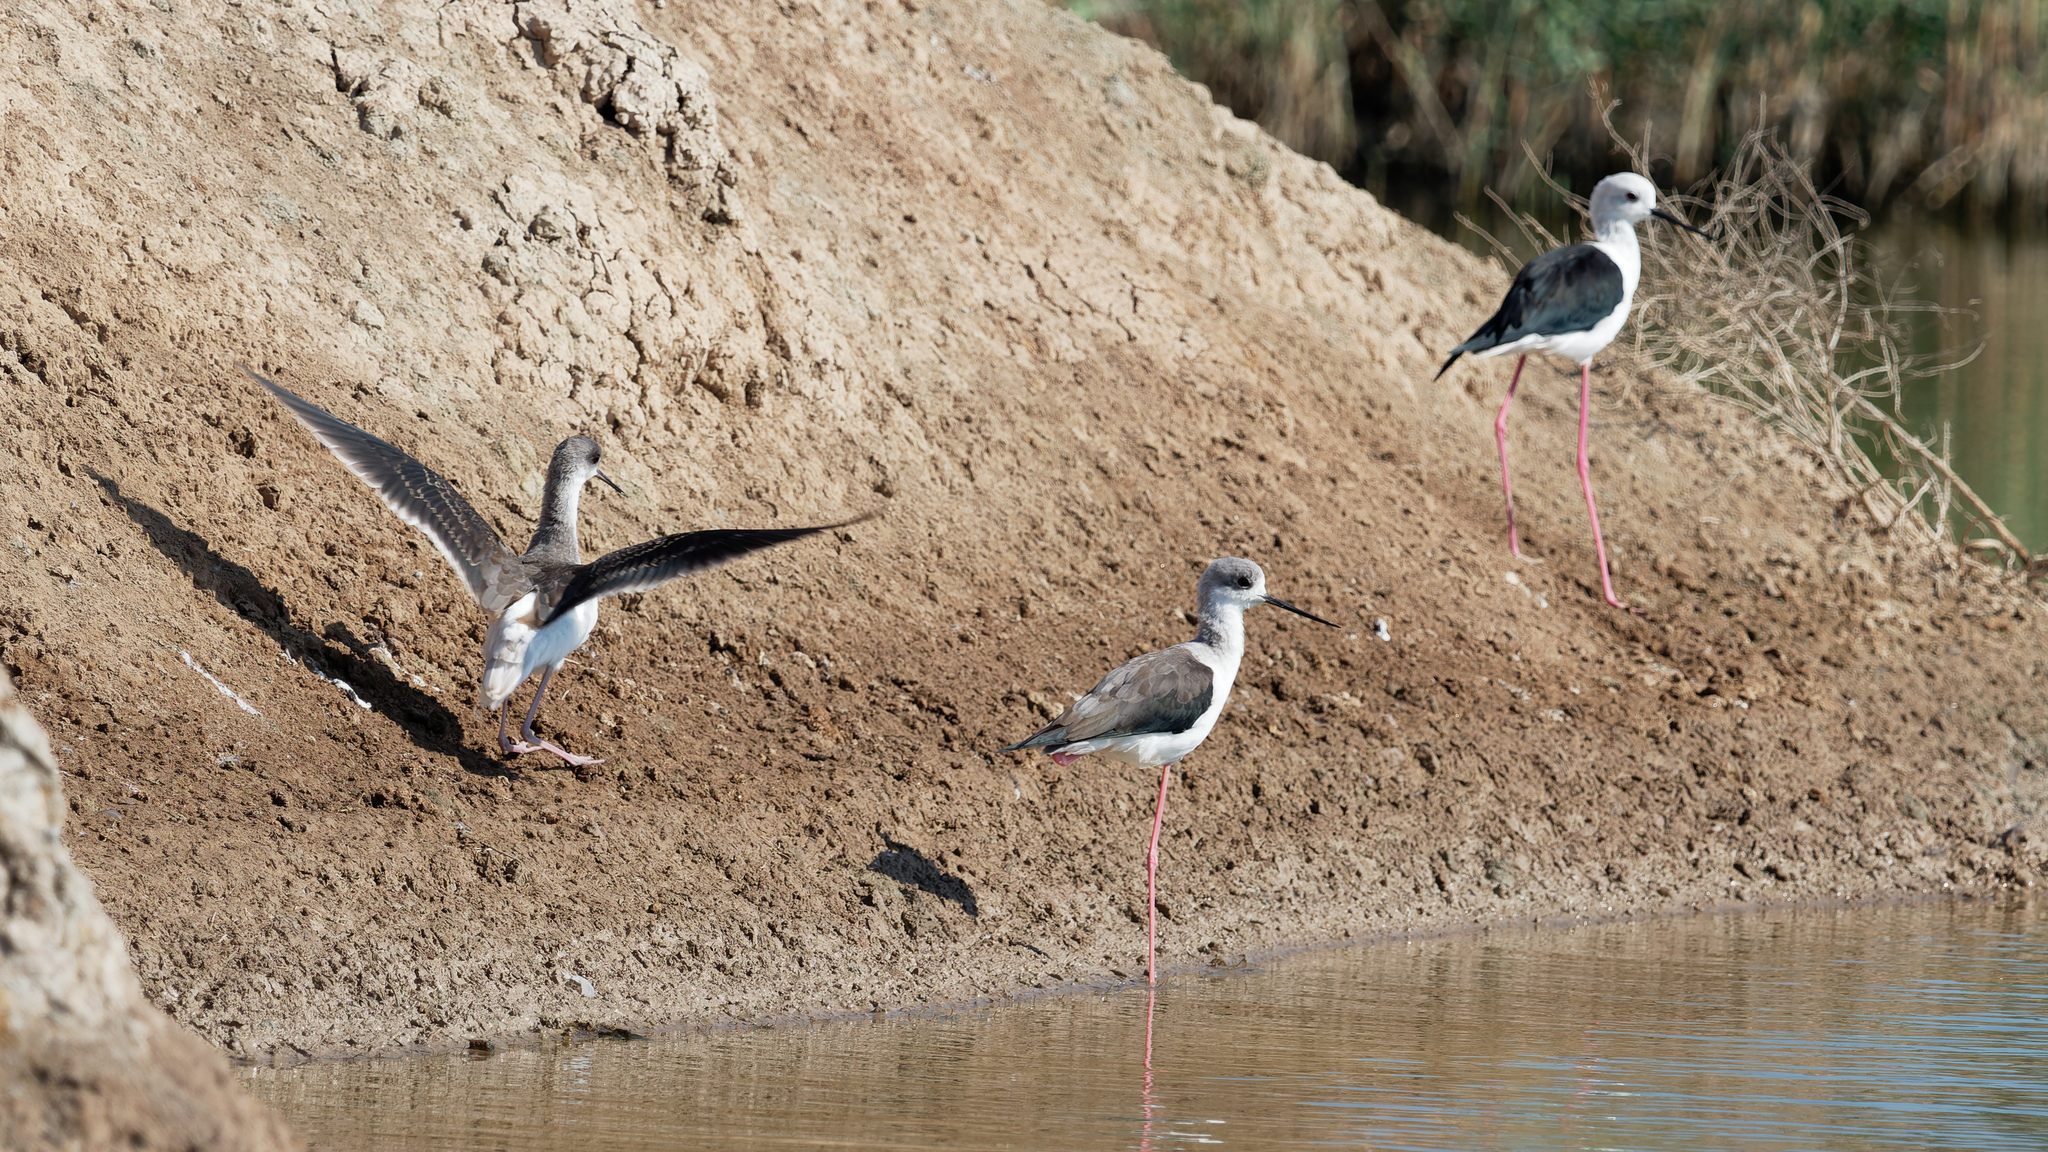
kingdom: Animalia
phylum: Chordata
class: Aves
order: Charadriiformes
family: Recurvirostridae
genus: Himantopus
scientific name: Himantopus himantopus
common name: Black-winged stilt
